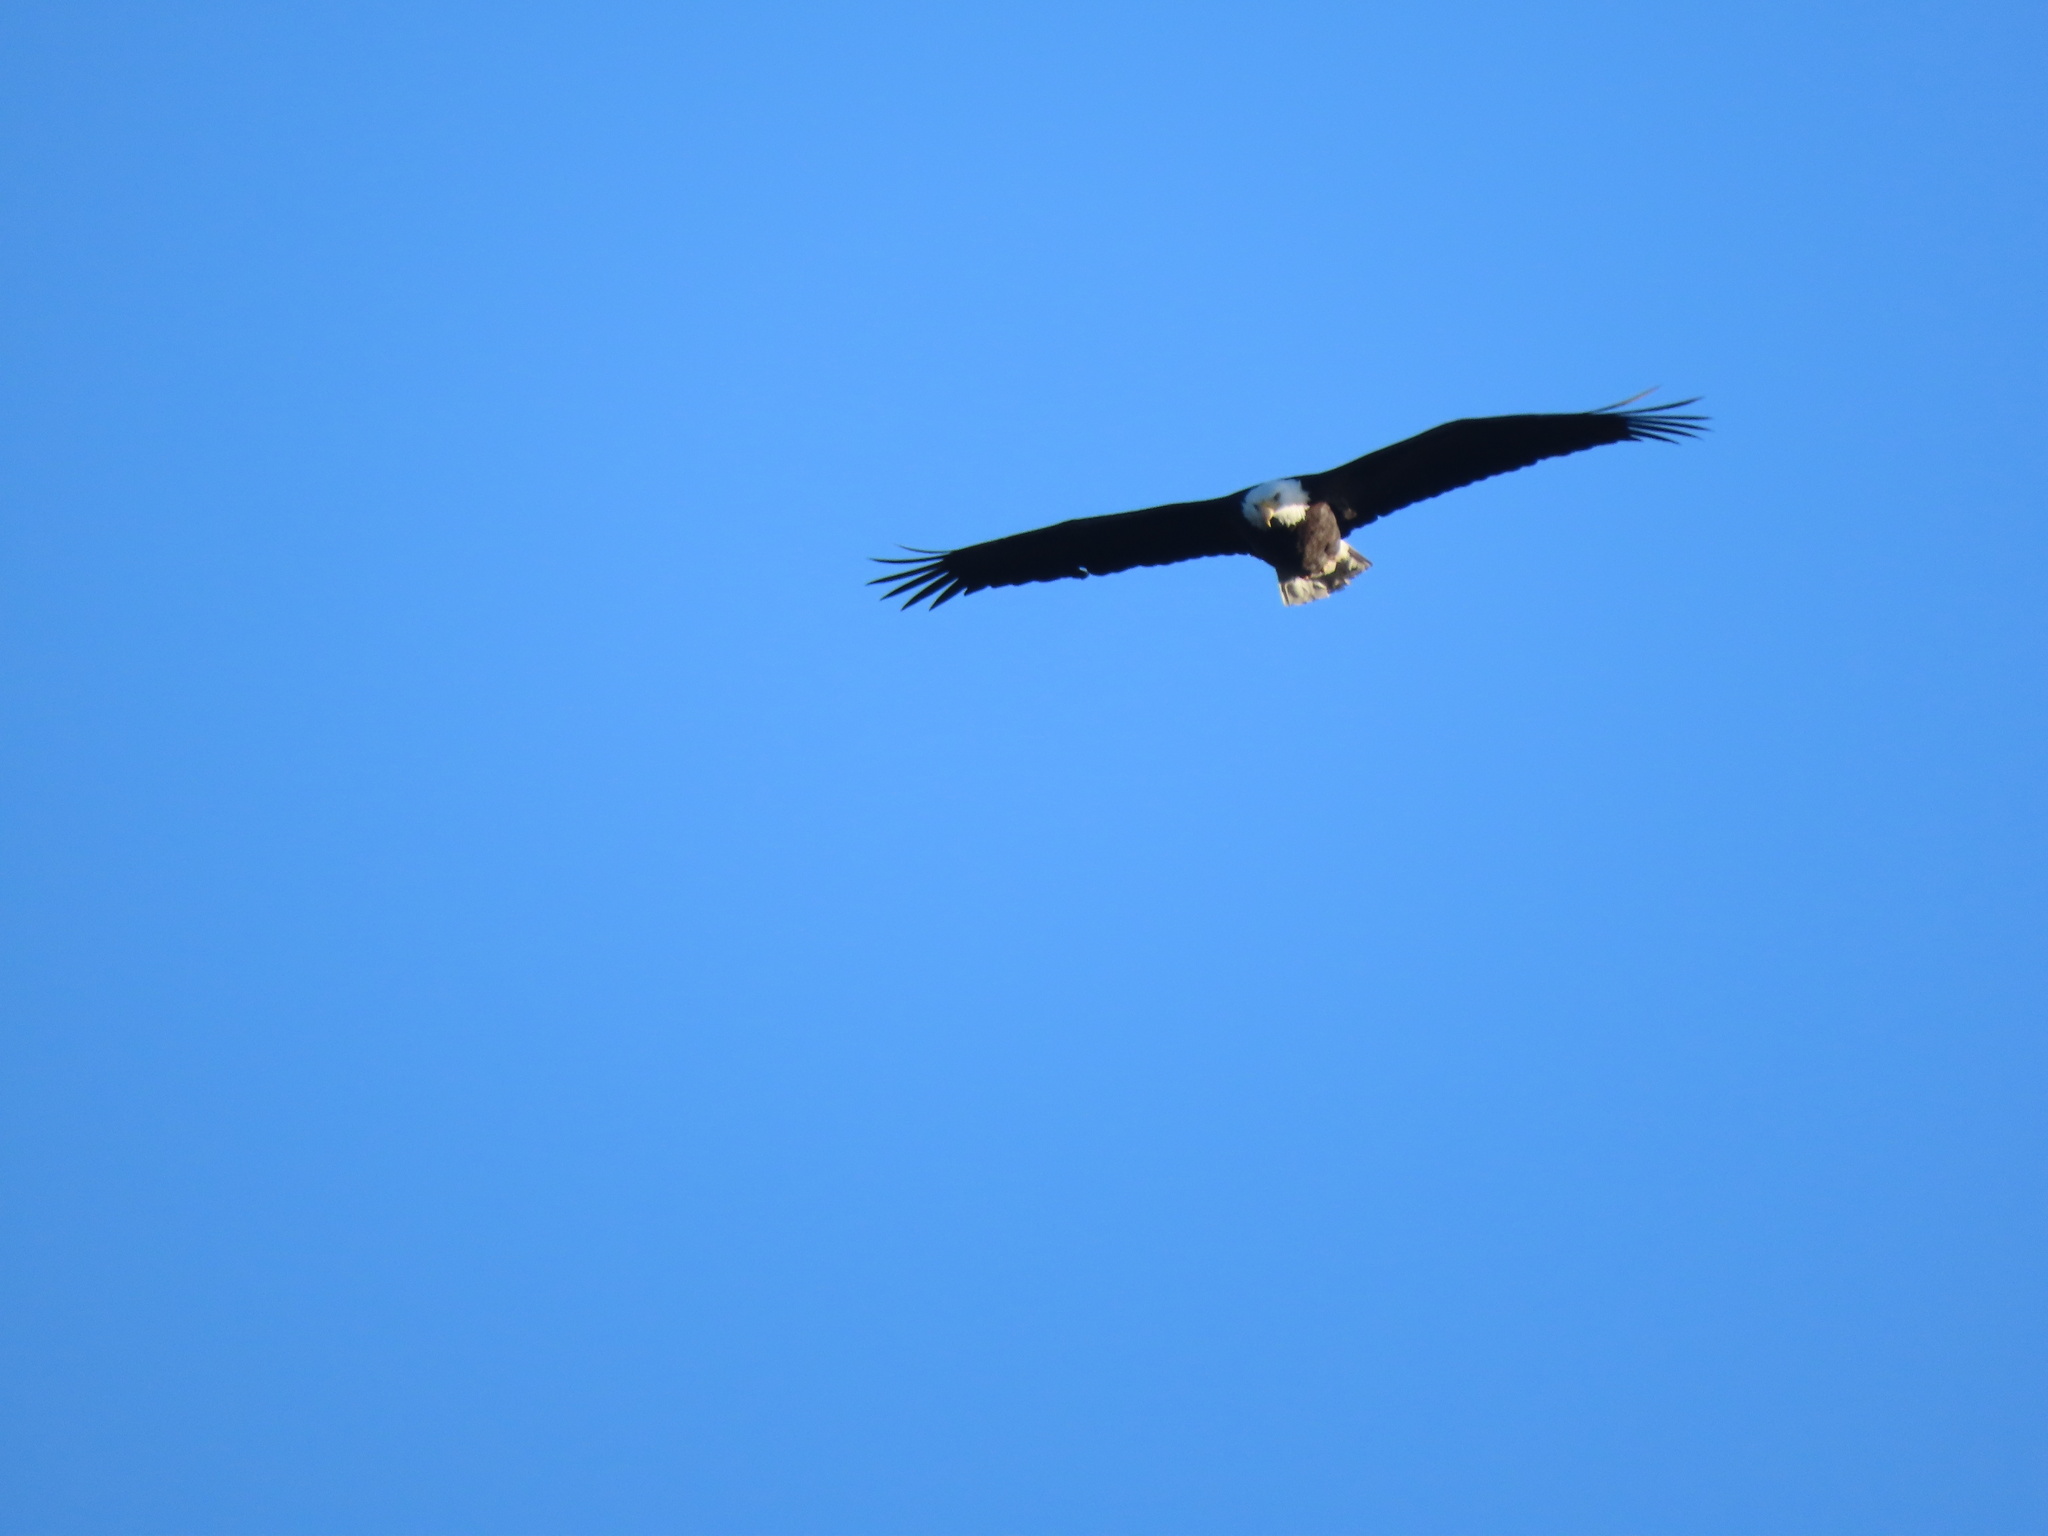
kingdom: Animalia
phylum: Chordata
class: Aves
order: Accipitriformes
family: Accipitridae
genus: Haliaeetus
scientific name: Haliaeetus leucocephalus
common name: Bald eagle
